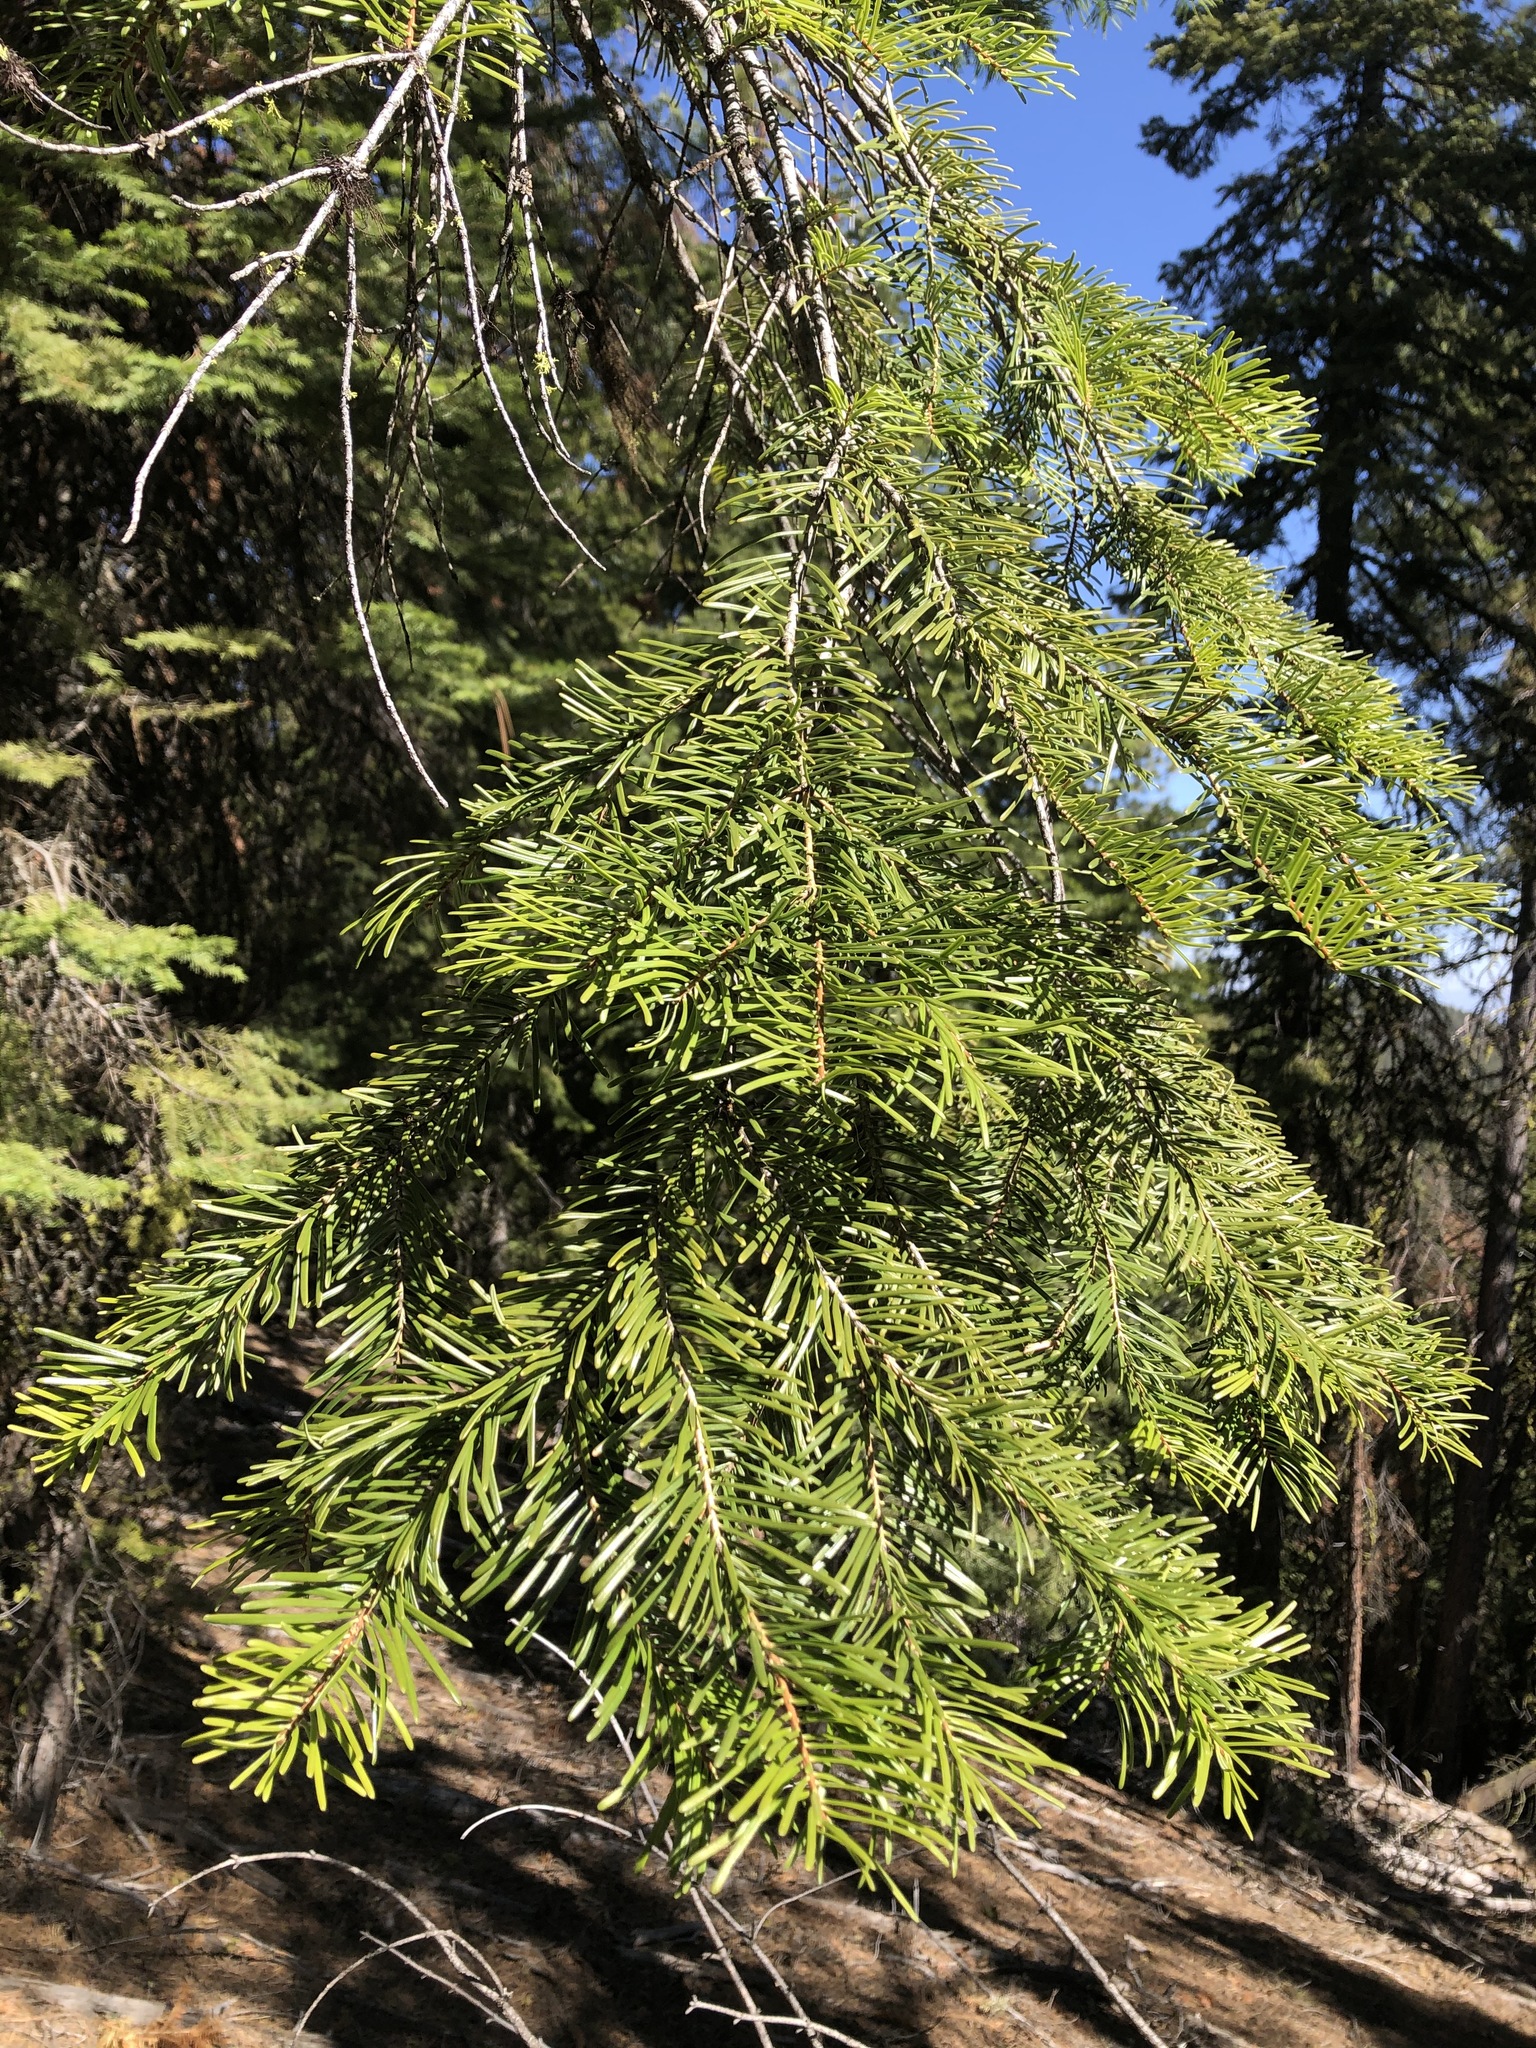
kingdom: Plantae
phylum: Tracheophyta
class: Pinopsida
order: Pinales
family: Pinaceae
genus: Abies
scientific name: Abies grandis
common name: Giant fir
